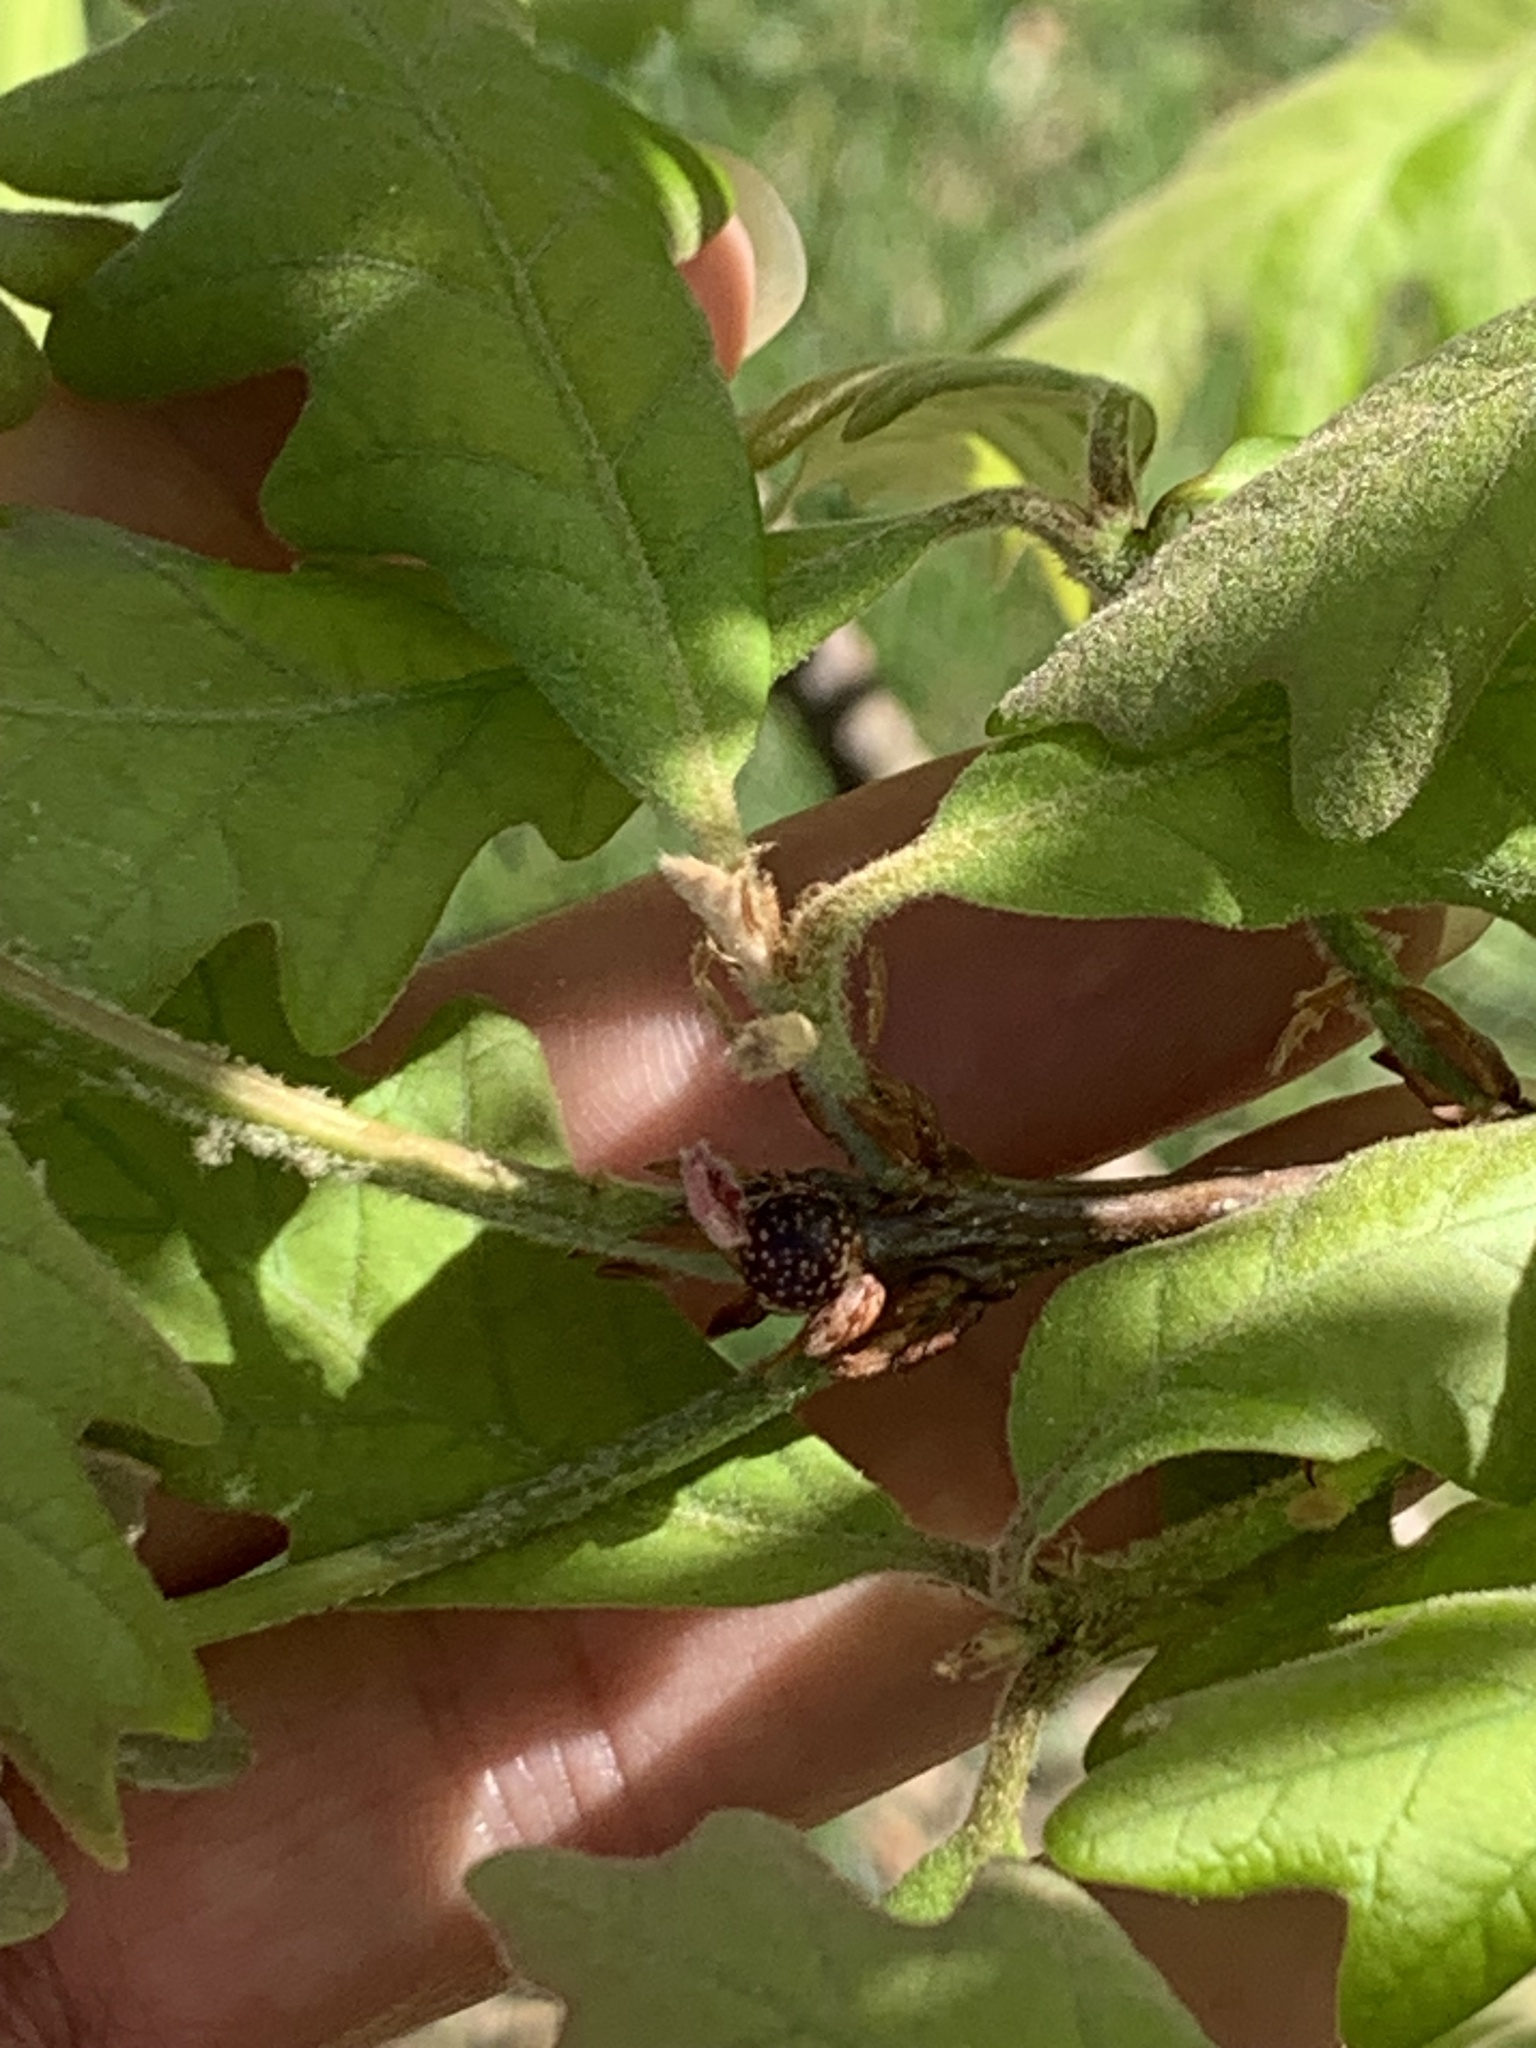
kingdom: Animalia
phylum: Arthropoda
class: Insecta
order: Hymenoptera
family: Cynipidae
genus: Andricus
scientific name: Andricus
